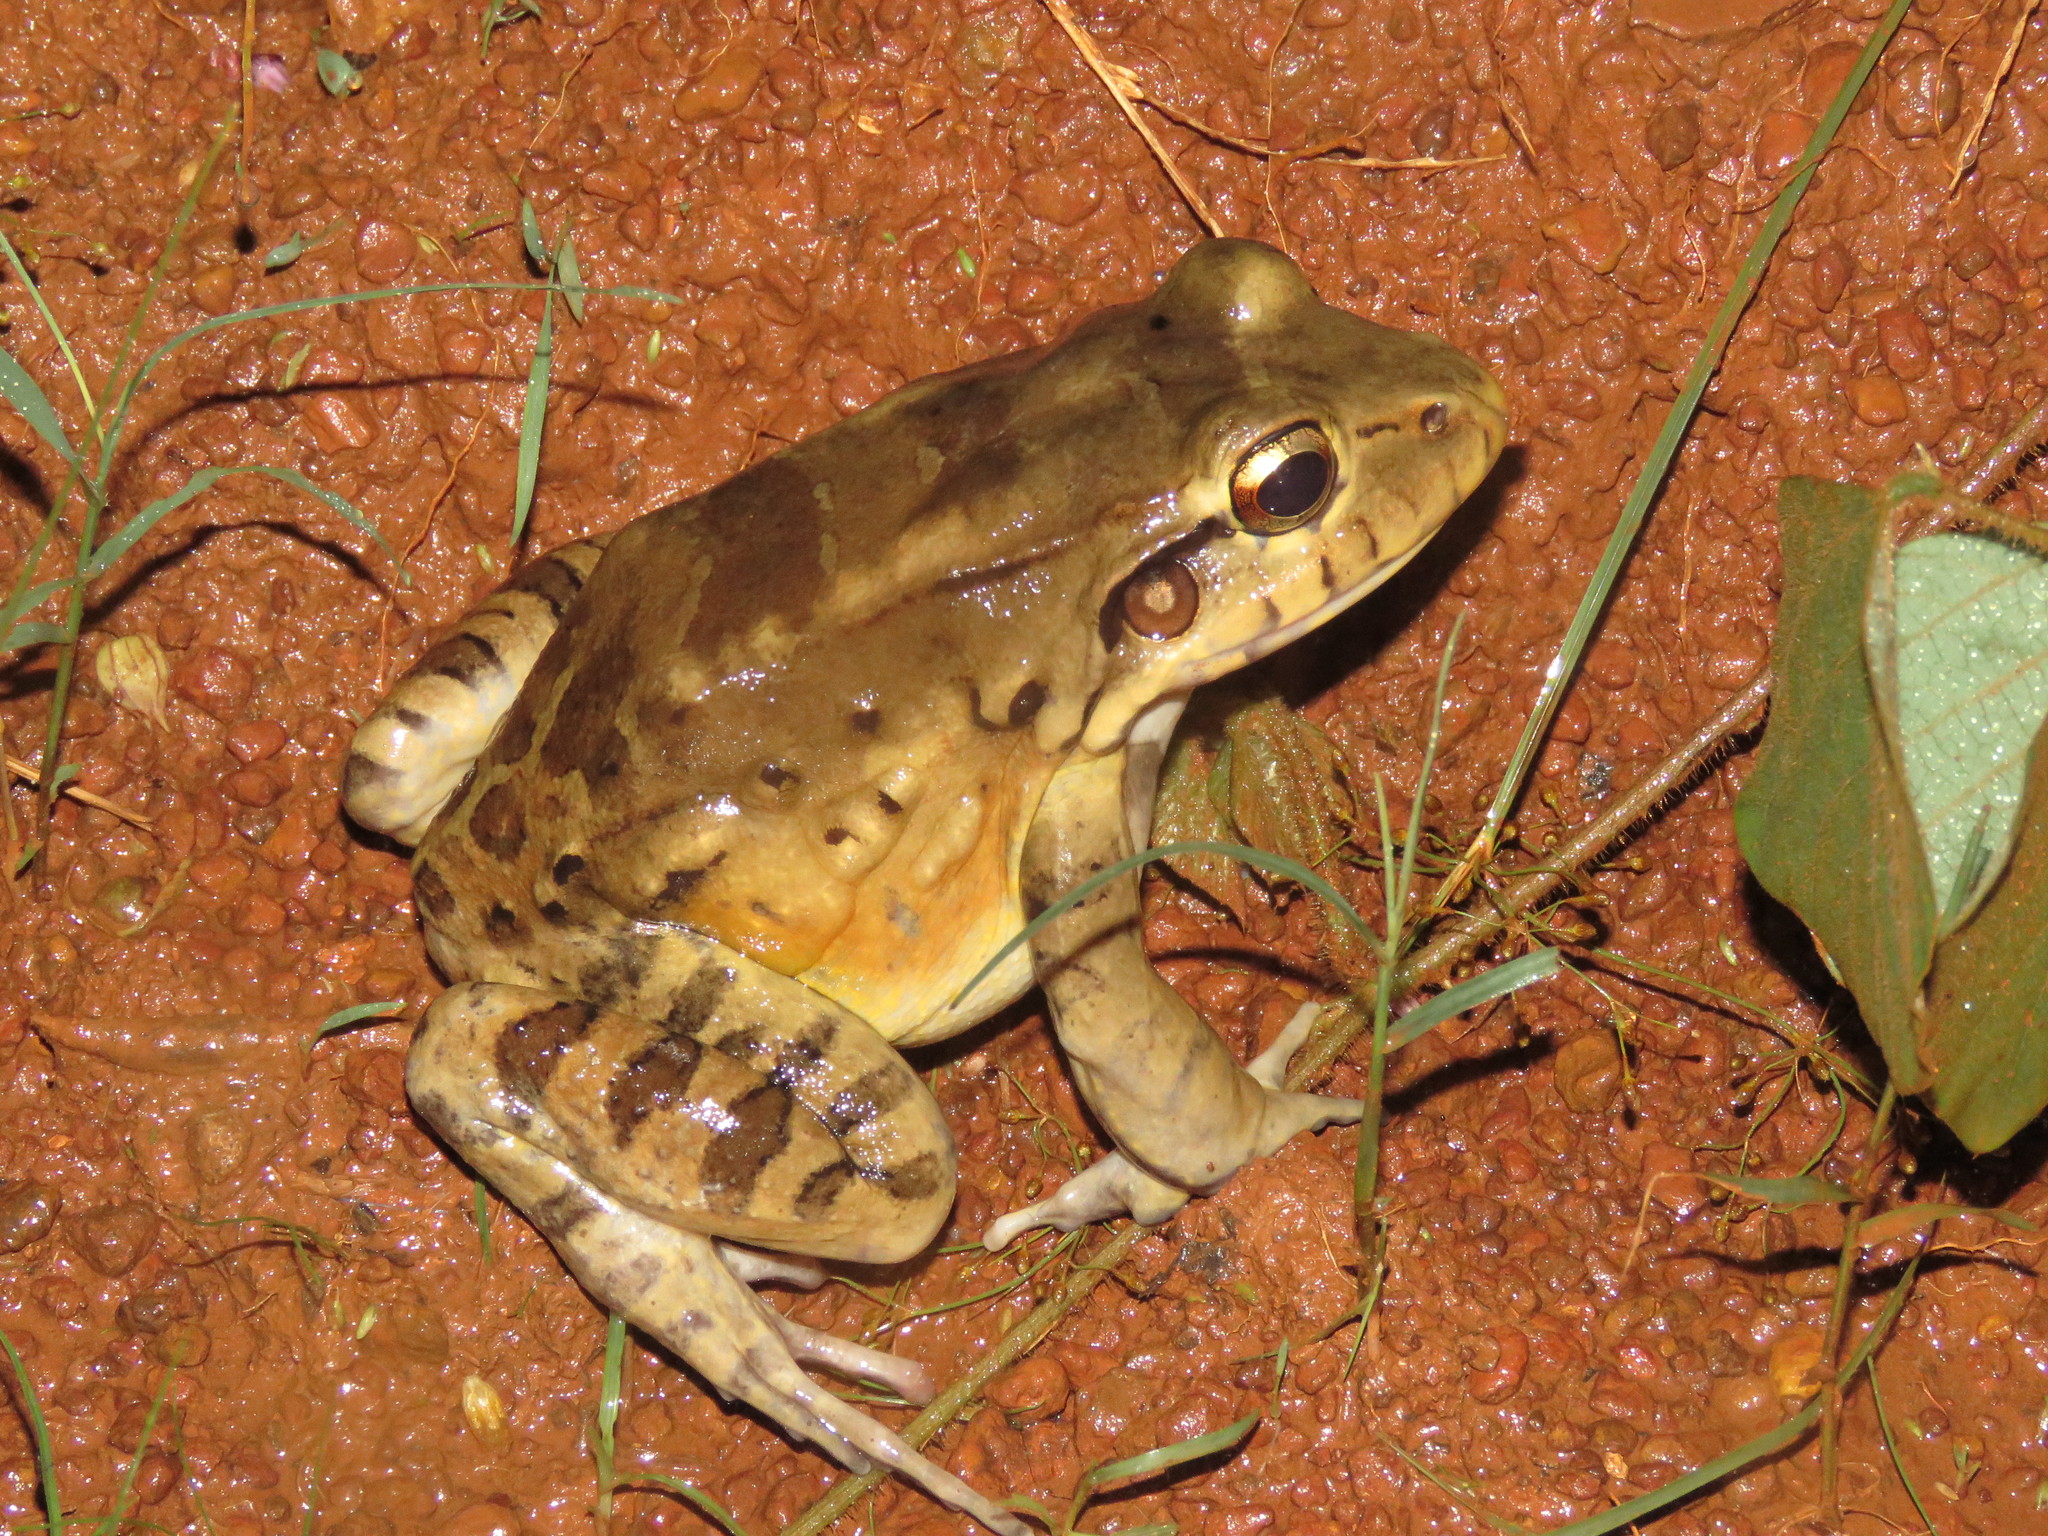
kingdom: Animalia
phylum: Chordata
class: Amphibia
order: Anura
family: Leptodactylidae
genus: Leptodactylus
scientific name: Leptodactylus knudseni
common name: Knudsen's frog
